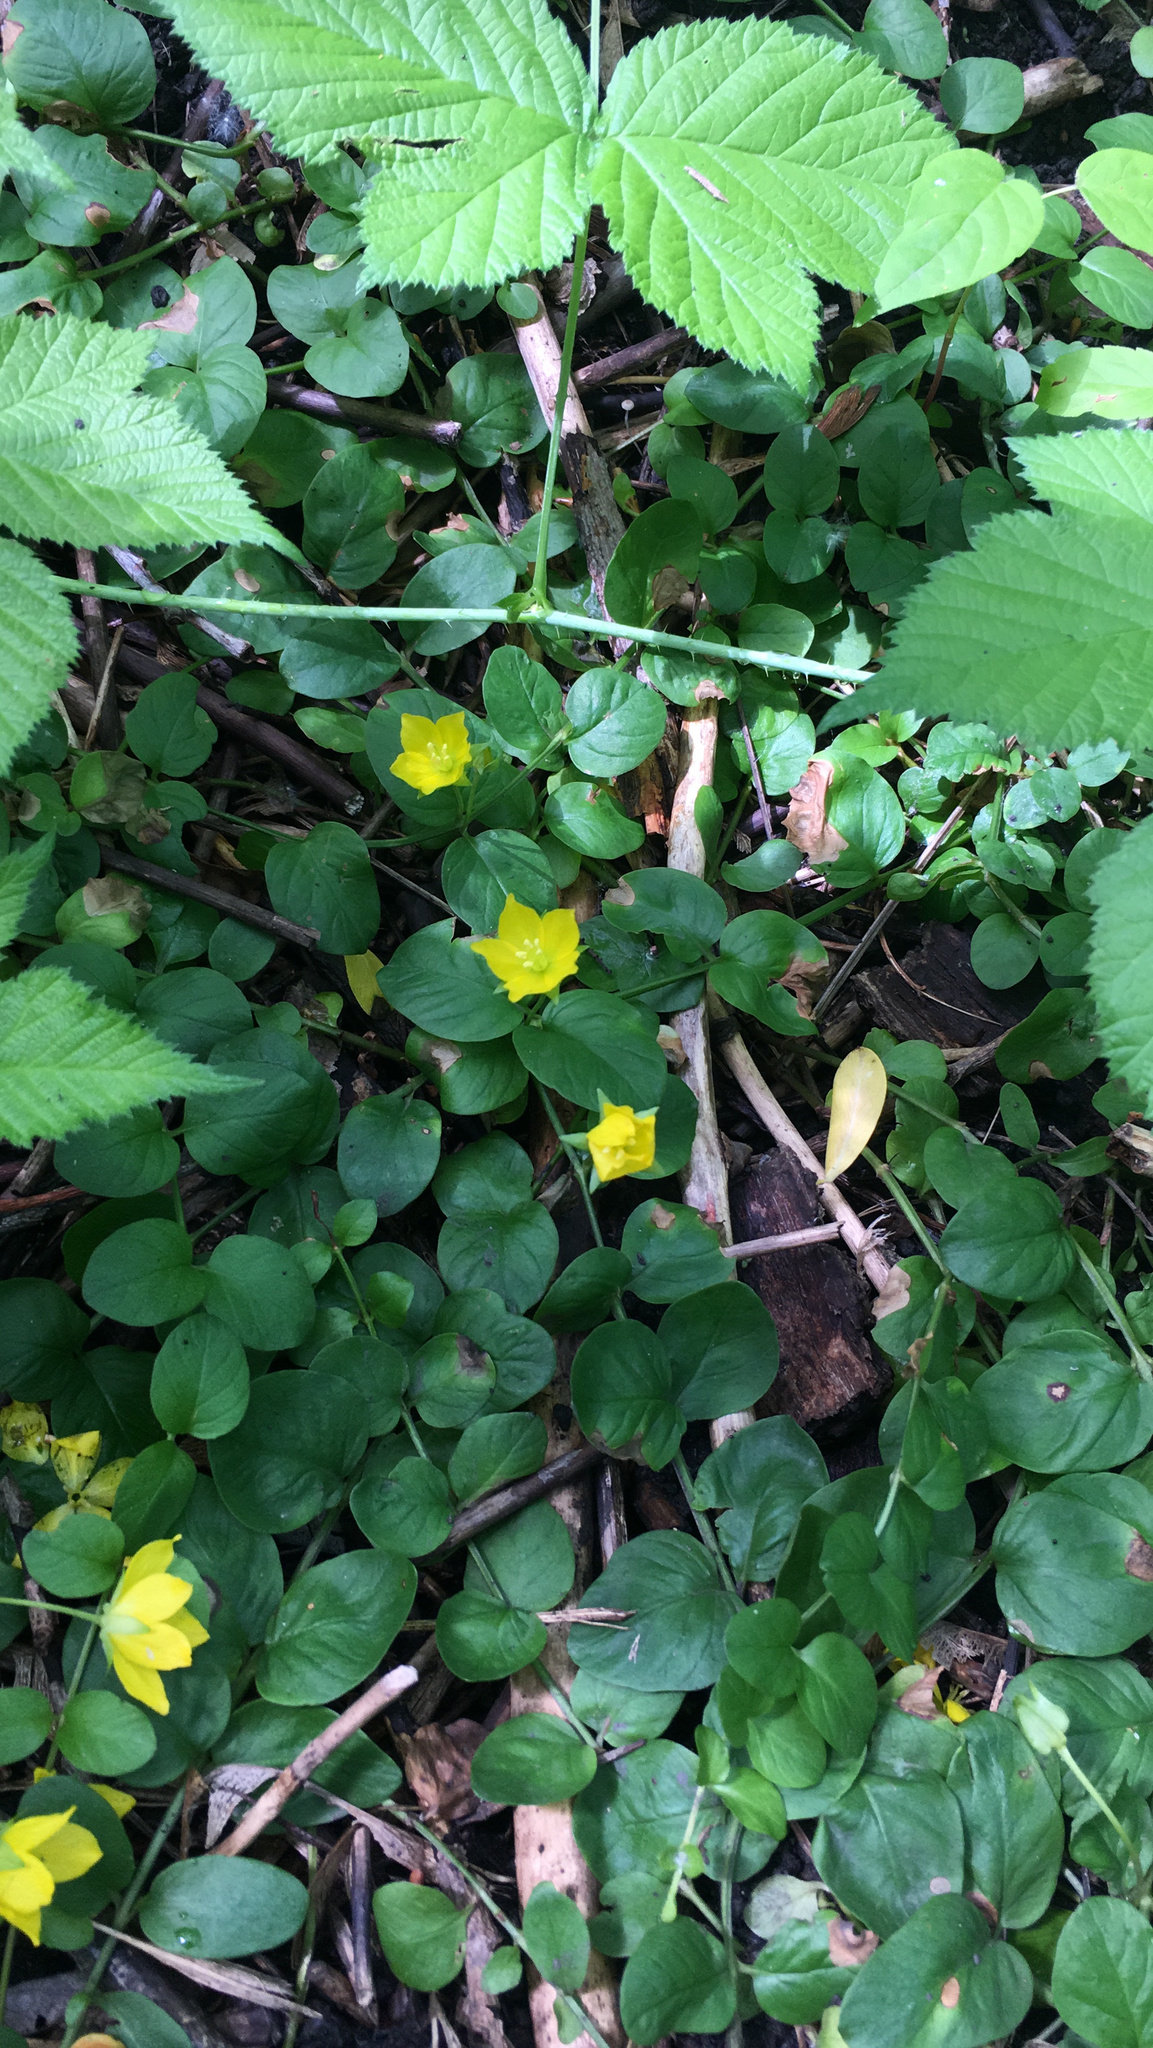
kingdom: Plantae
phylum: Tracheophyta
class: Magnoliopsida
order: Ericales
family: Primulaceae
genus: Lysimachia
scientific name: Lysimachia nummularia
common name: Moneywort
